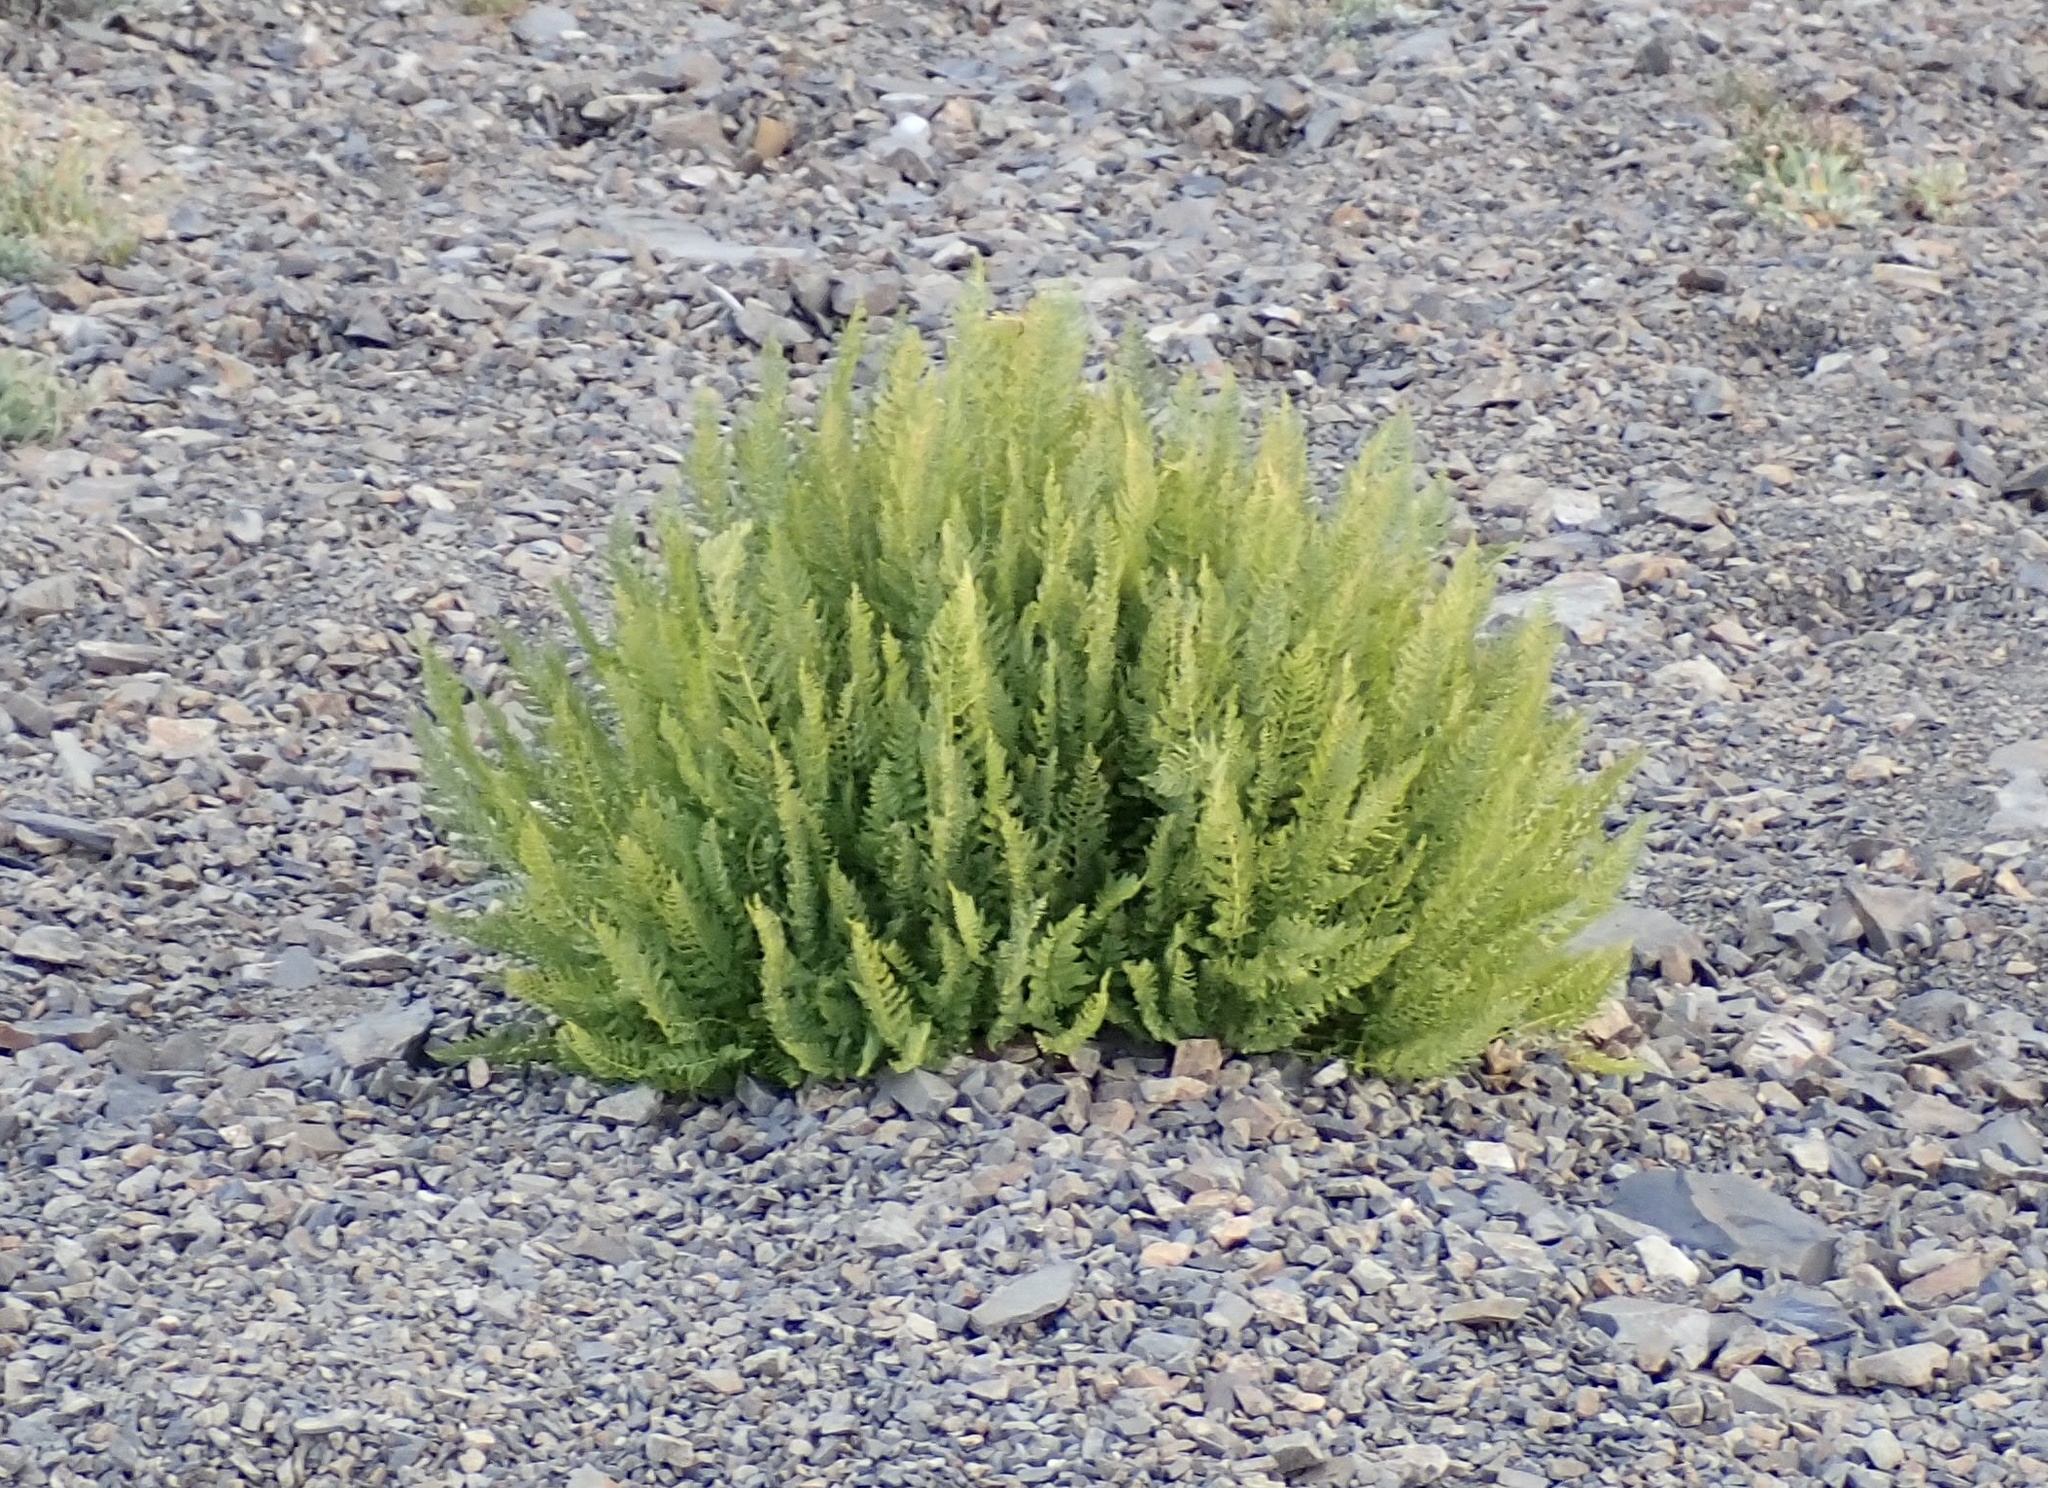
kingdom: Plantae
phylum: Tracheophyta
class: Polypodiopsida
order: Polypodiales
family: Athyriaceae
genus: Athyrium
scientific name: Athyrium americanum
